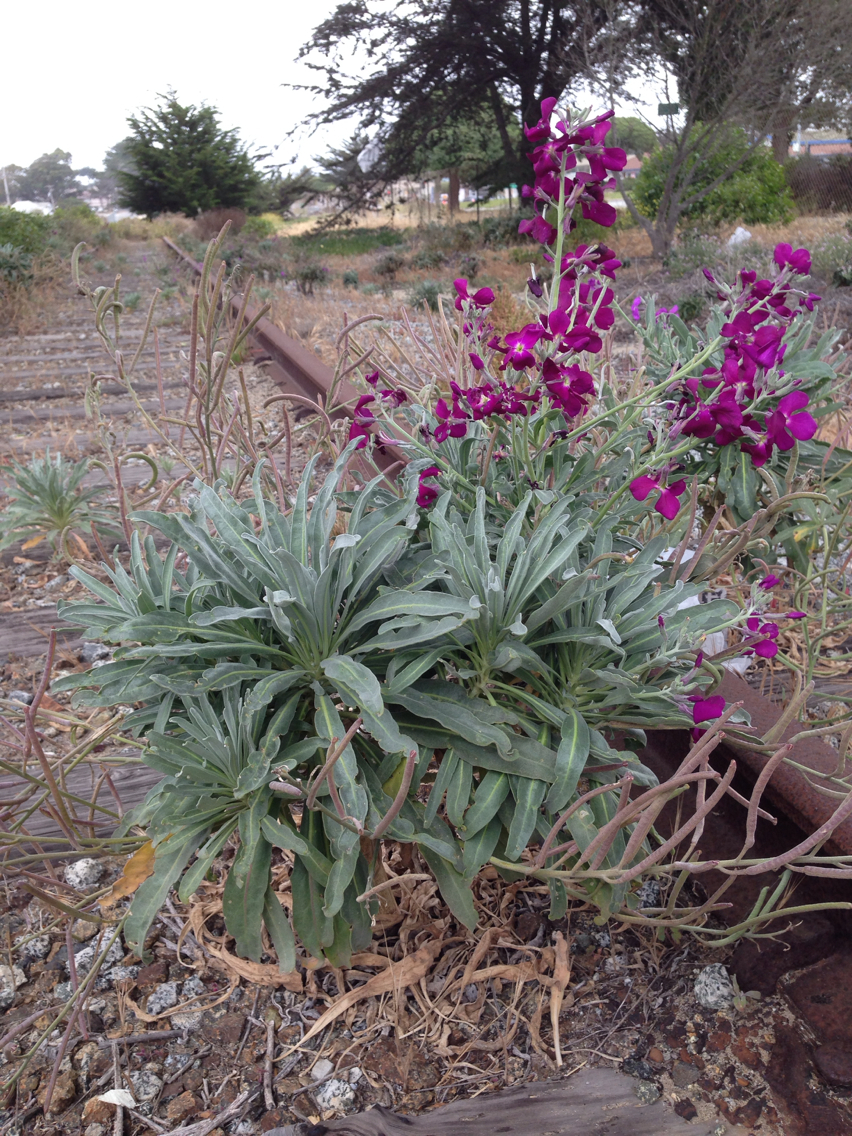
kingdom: Plantae
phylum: Tracheophyta
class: Magnoliopsida
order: Brassicales
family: Brassicaceae
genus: Matthiola
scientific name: Matthiola incana
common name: Hoary stock
